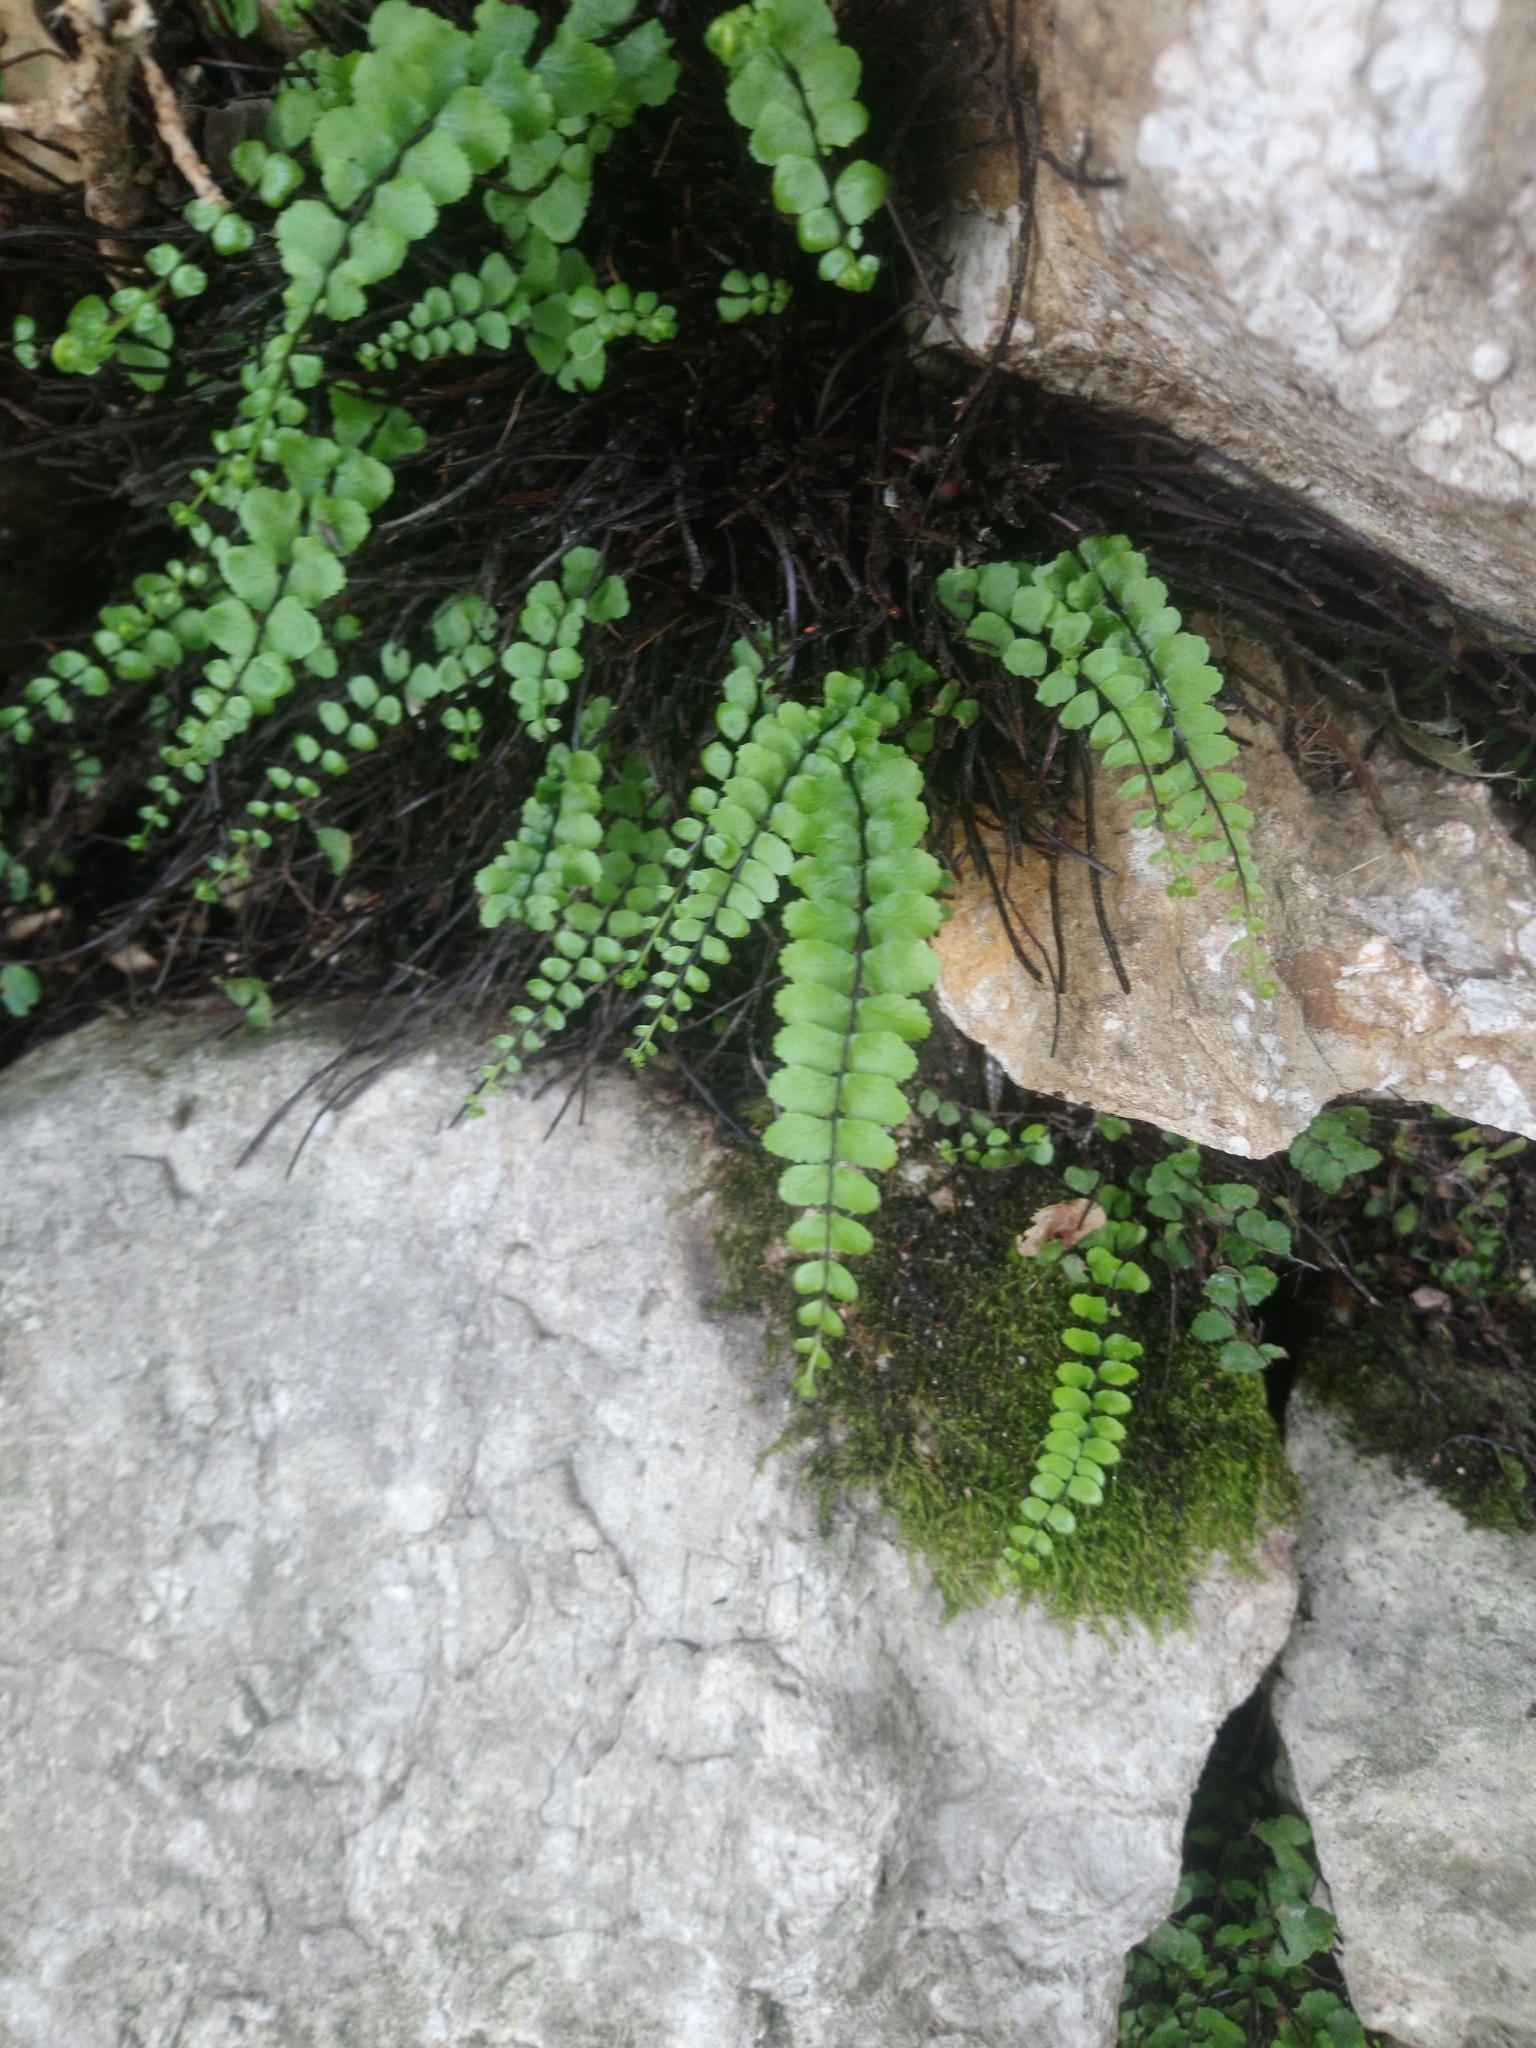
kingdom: Plantae
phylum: Tracheophyta
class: Polypodiopsida
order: Polypodiales
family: Aspleniaceae
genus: Asplenium
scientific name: Asplenium trichomanes
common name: Maidenhair spleenwort
